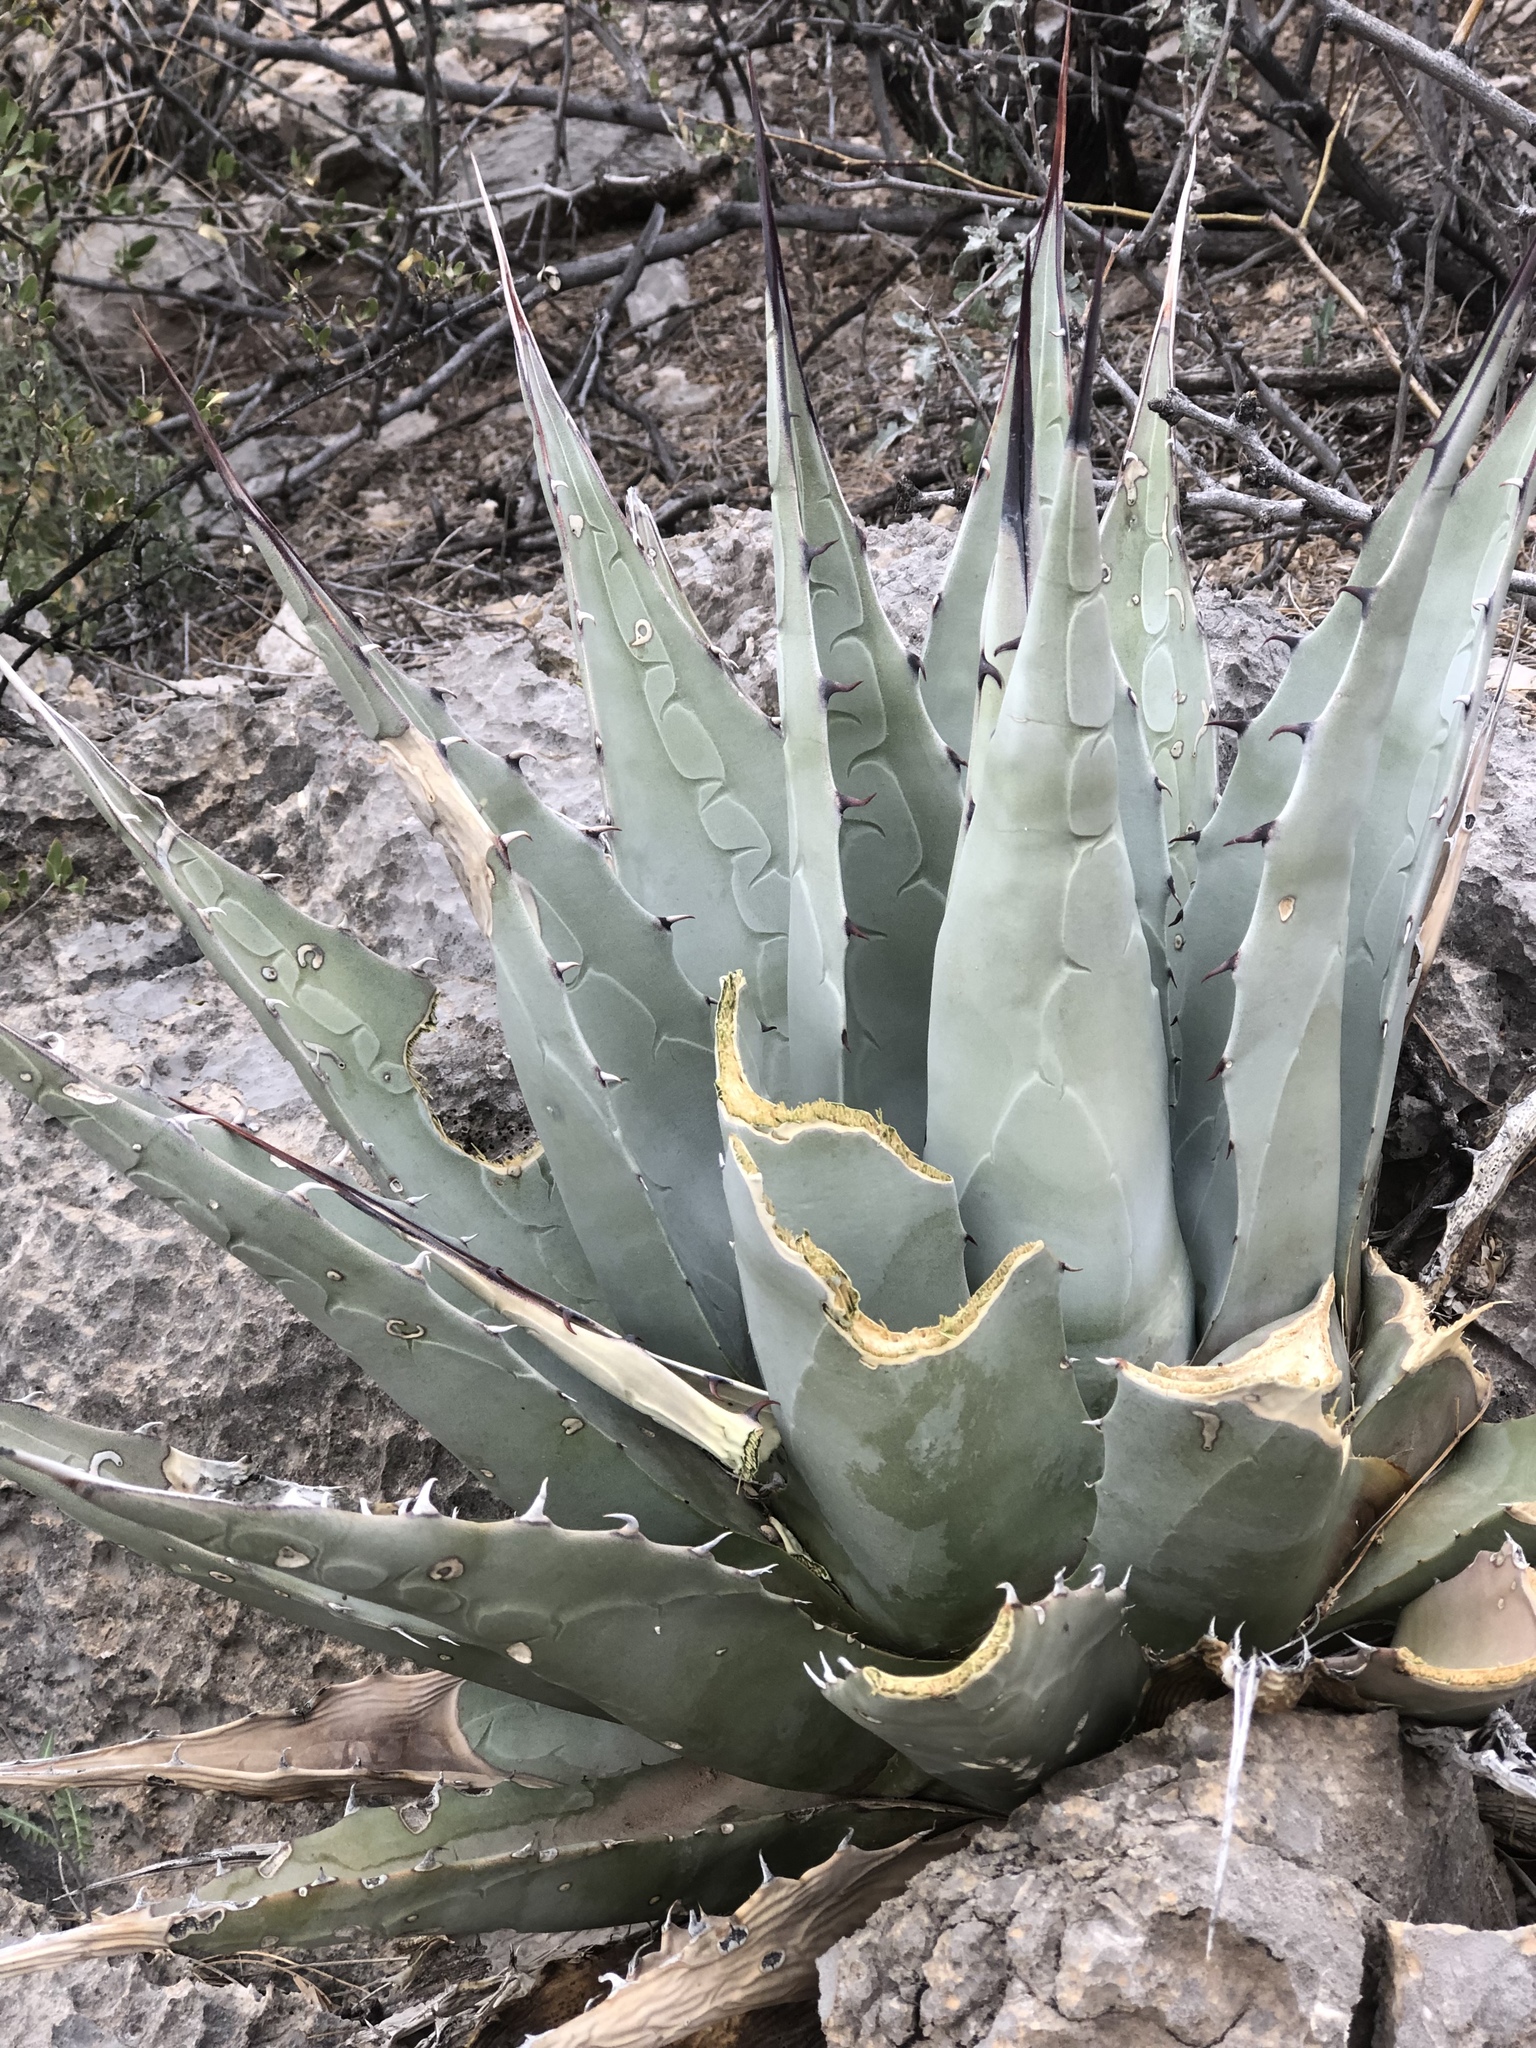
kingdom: Plantae
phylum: Tracheophyta
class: Liliopsida
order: Asparagales
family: Asparagaceae
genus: Agave
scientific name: Agave parryi
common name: Parry's agave
